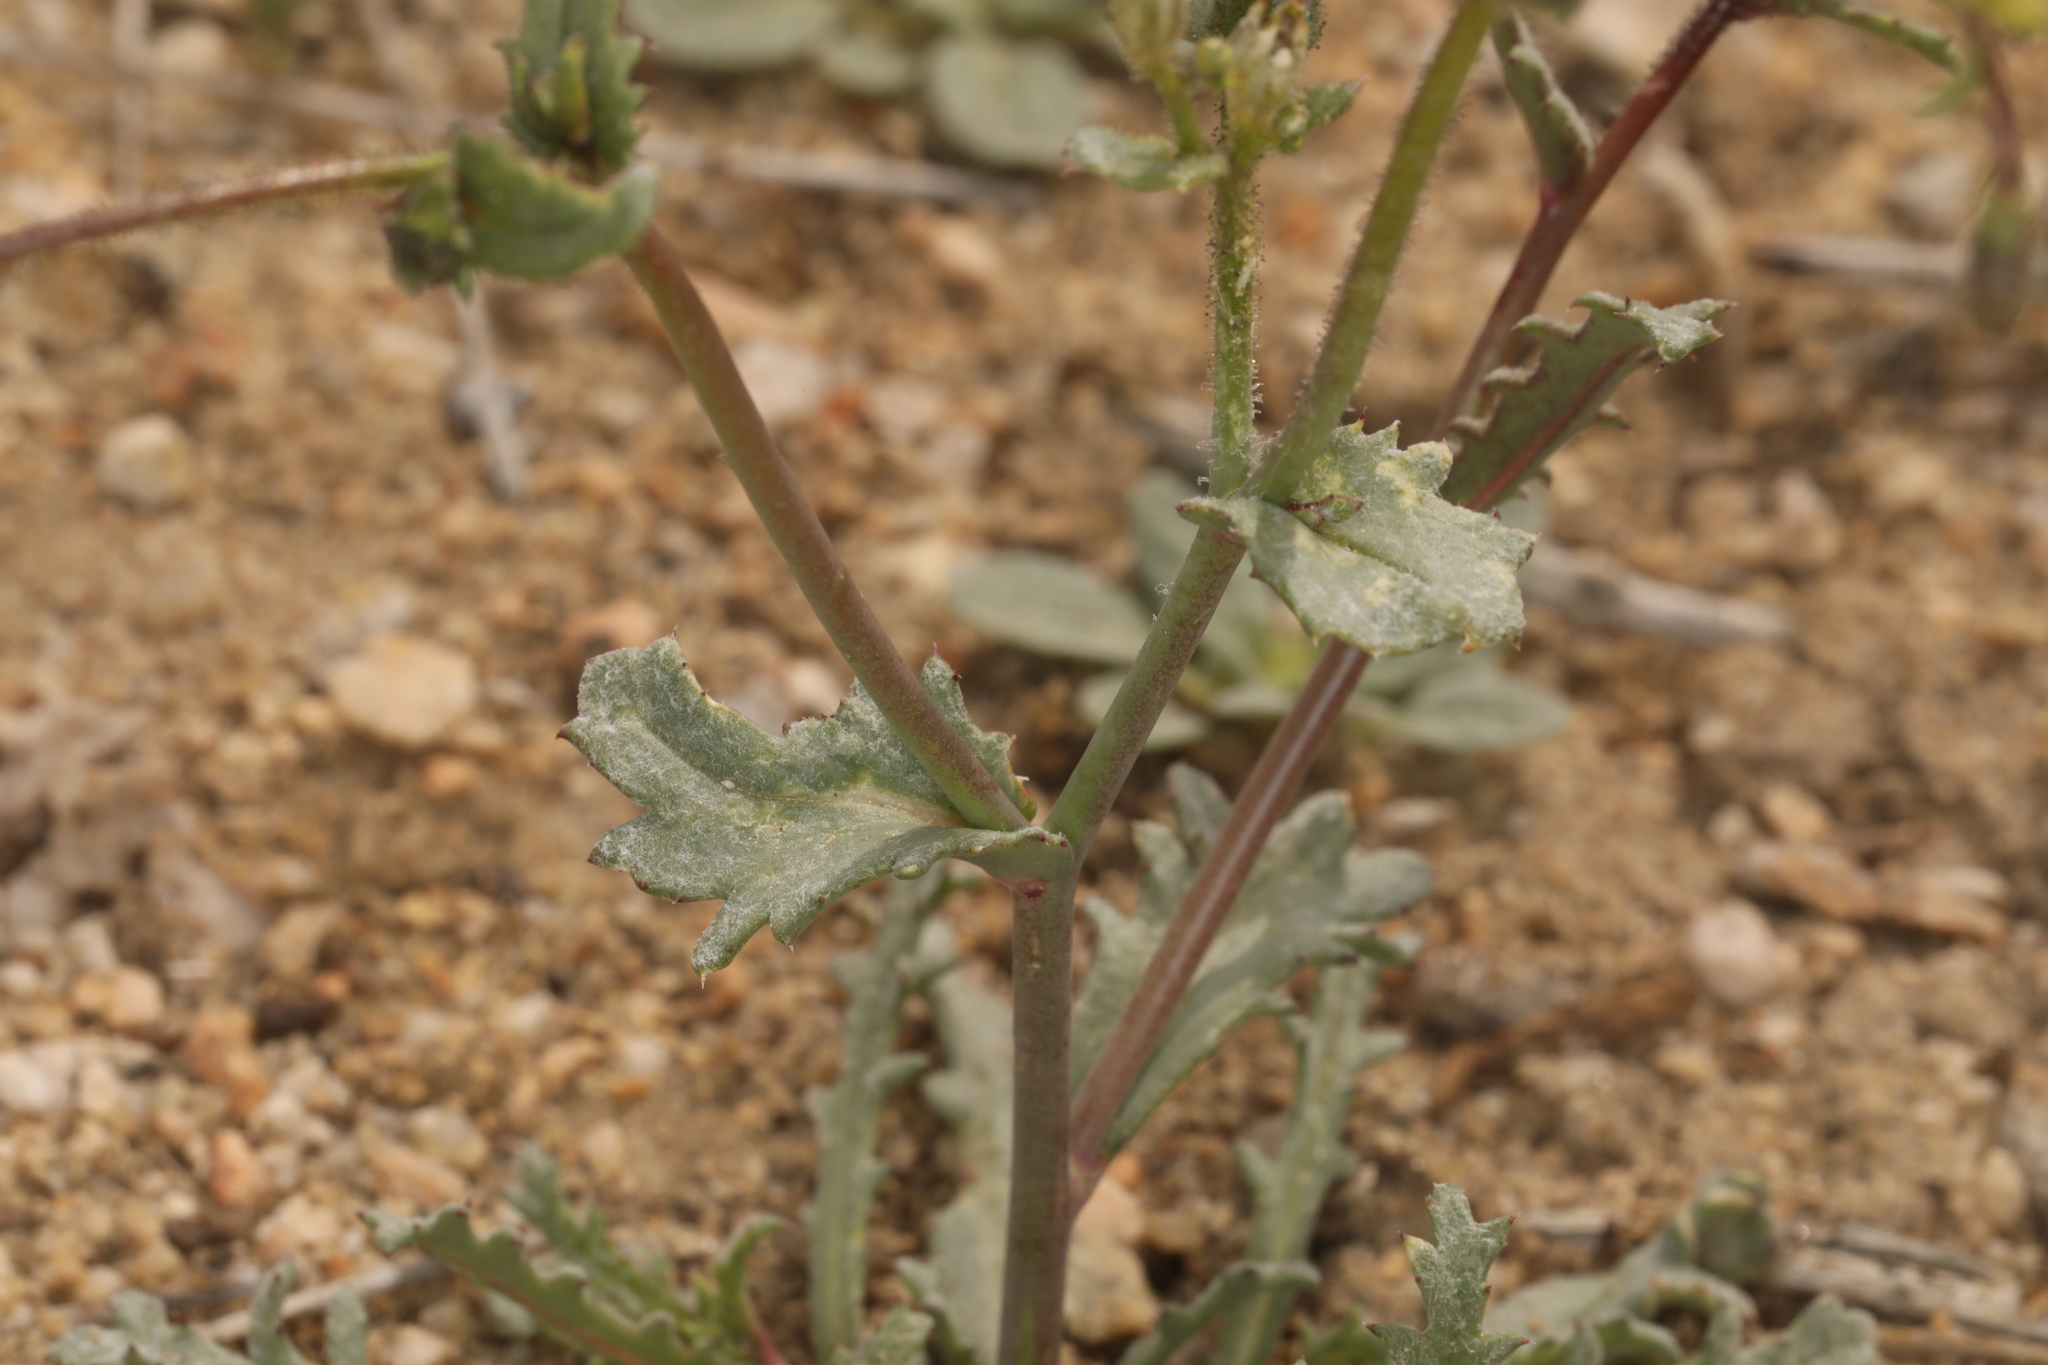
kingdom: Plantae
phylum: Tracheophyta
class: Magnoliopsida
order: Ericales
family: Polemoniaceae
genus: Gilia
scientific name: Gilia sinuata
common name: Rosy gilia
